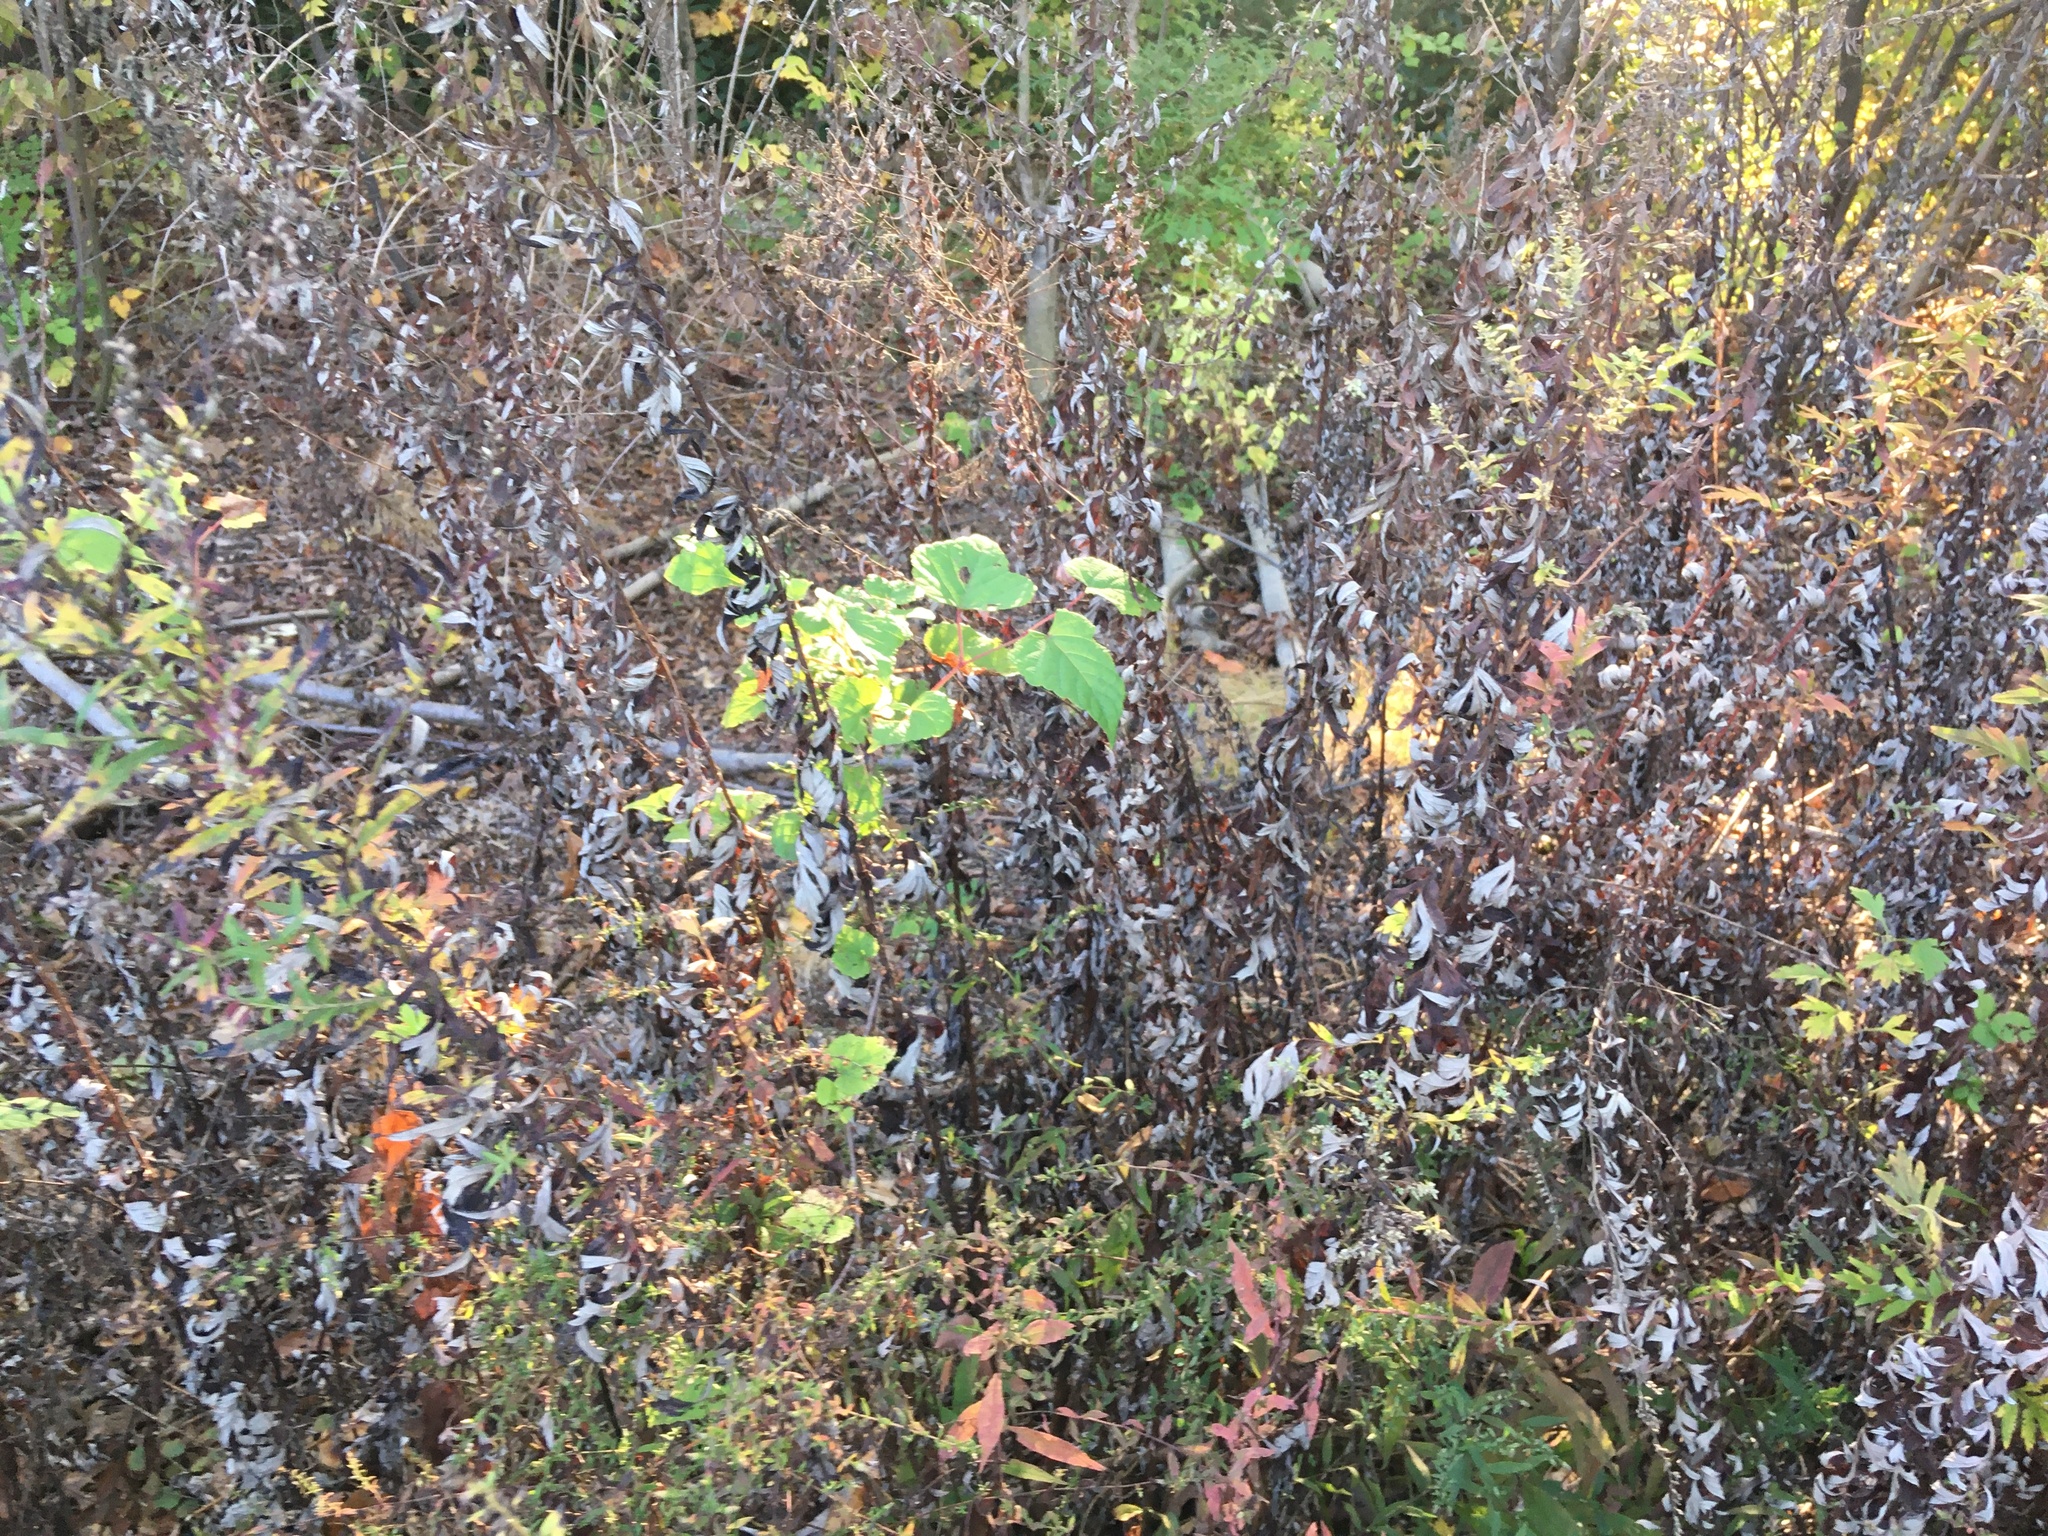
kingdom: Plantae
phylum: Tracheophyta
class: Magnoliopsida
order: Asterales
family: Asteraceae
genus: Artemisia
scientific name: Artemisia vulgaris
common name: Mugwort
